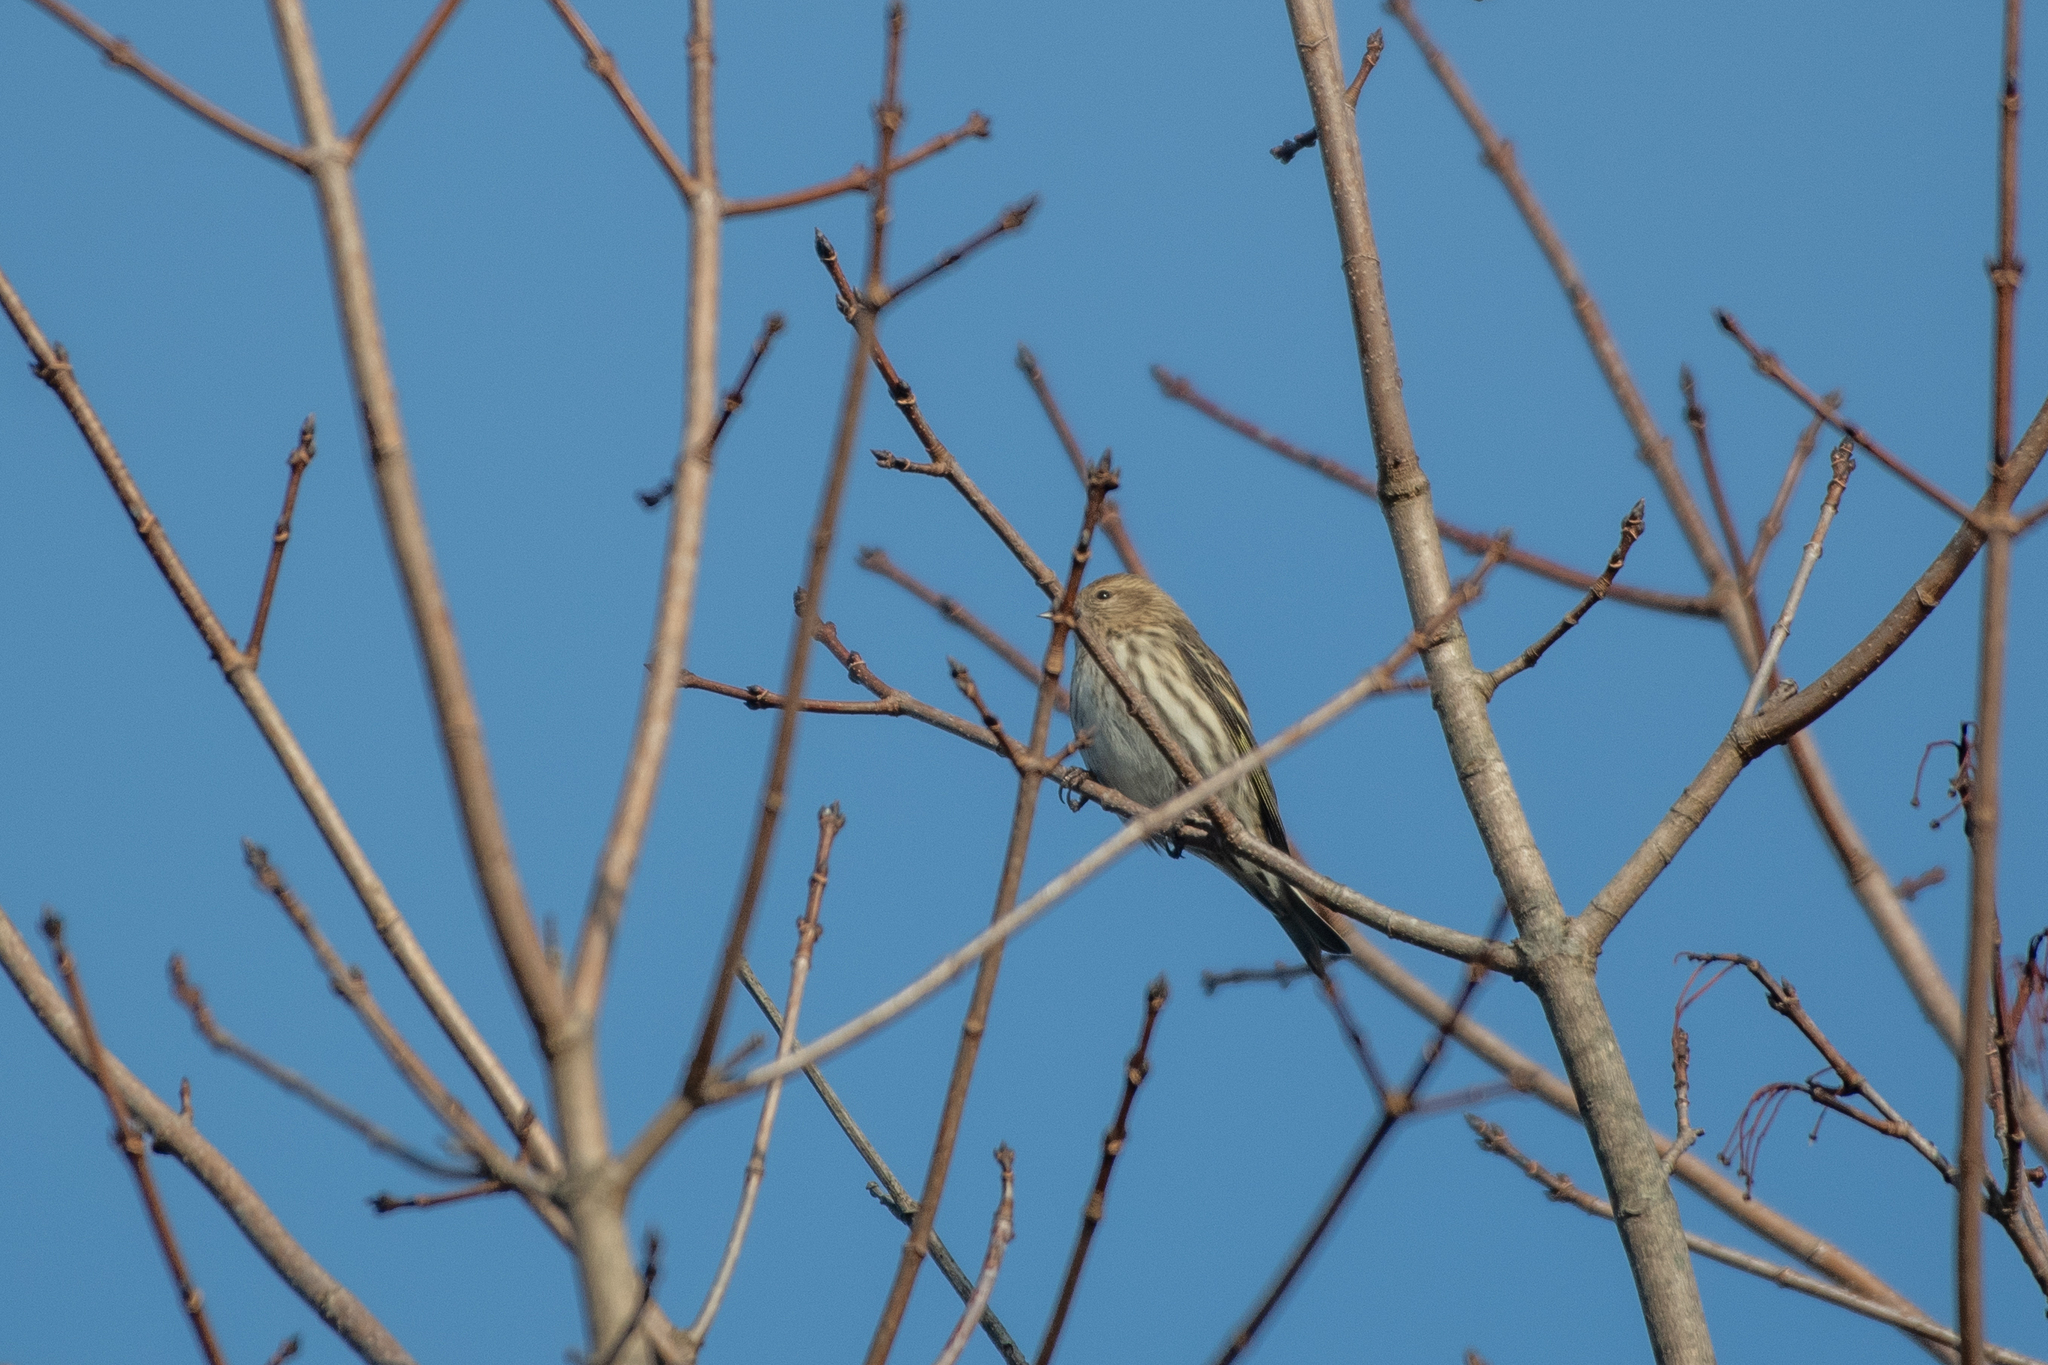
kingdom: Animalia
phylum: Chordata
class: Aves
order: Passeriformes
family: Fringillidae
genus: Spinus
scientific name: Spinus pinus
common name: Pine siskin
